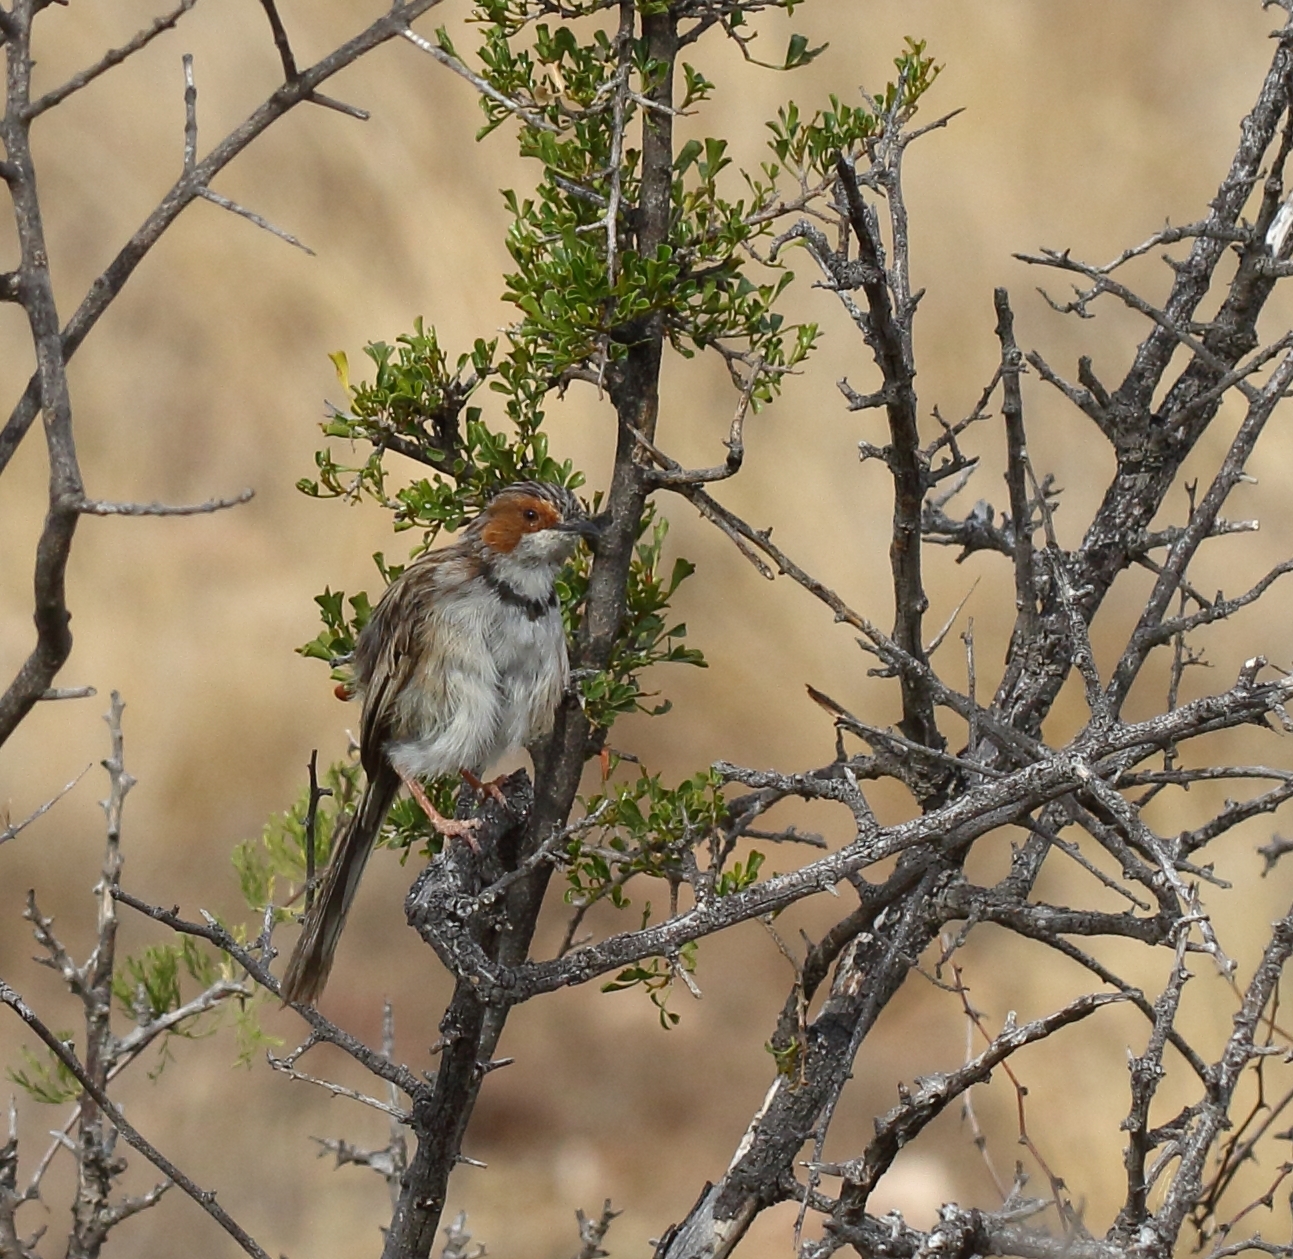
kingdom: Animalia
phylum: Chordata
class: Aves
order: Passeriformes
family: Cisticolidae
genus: Malcorus
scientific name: Malcorus pectoralis
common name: Rufous-eared warbler
